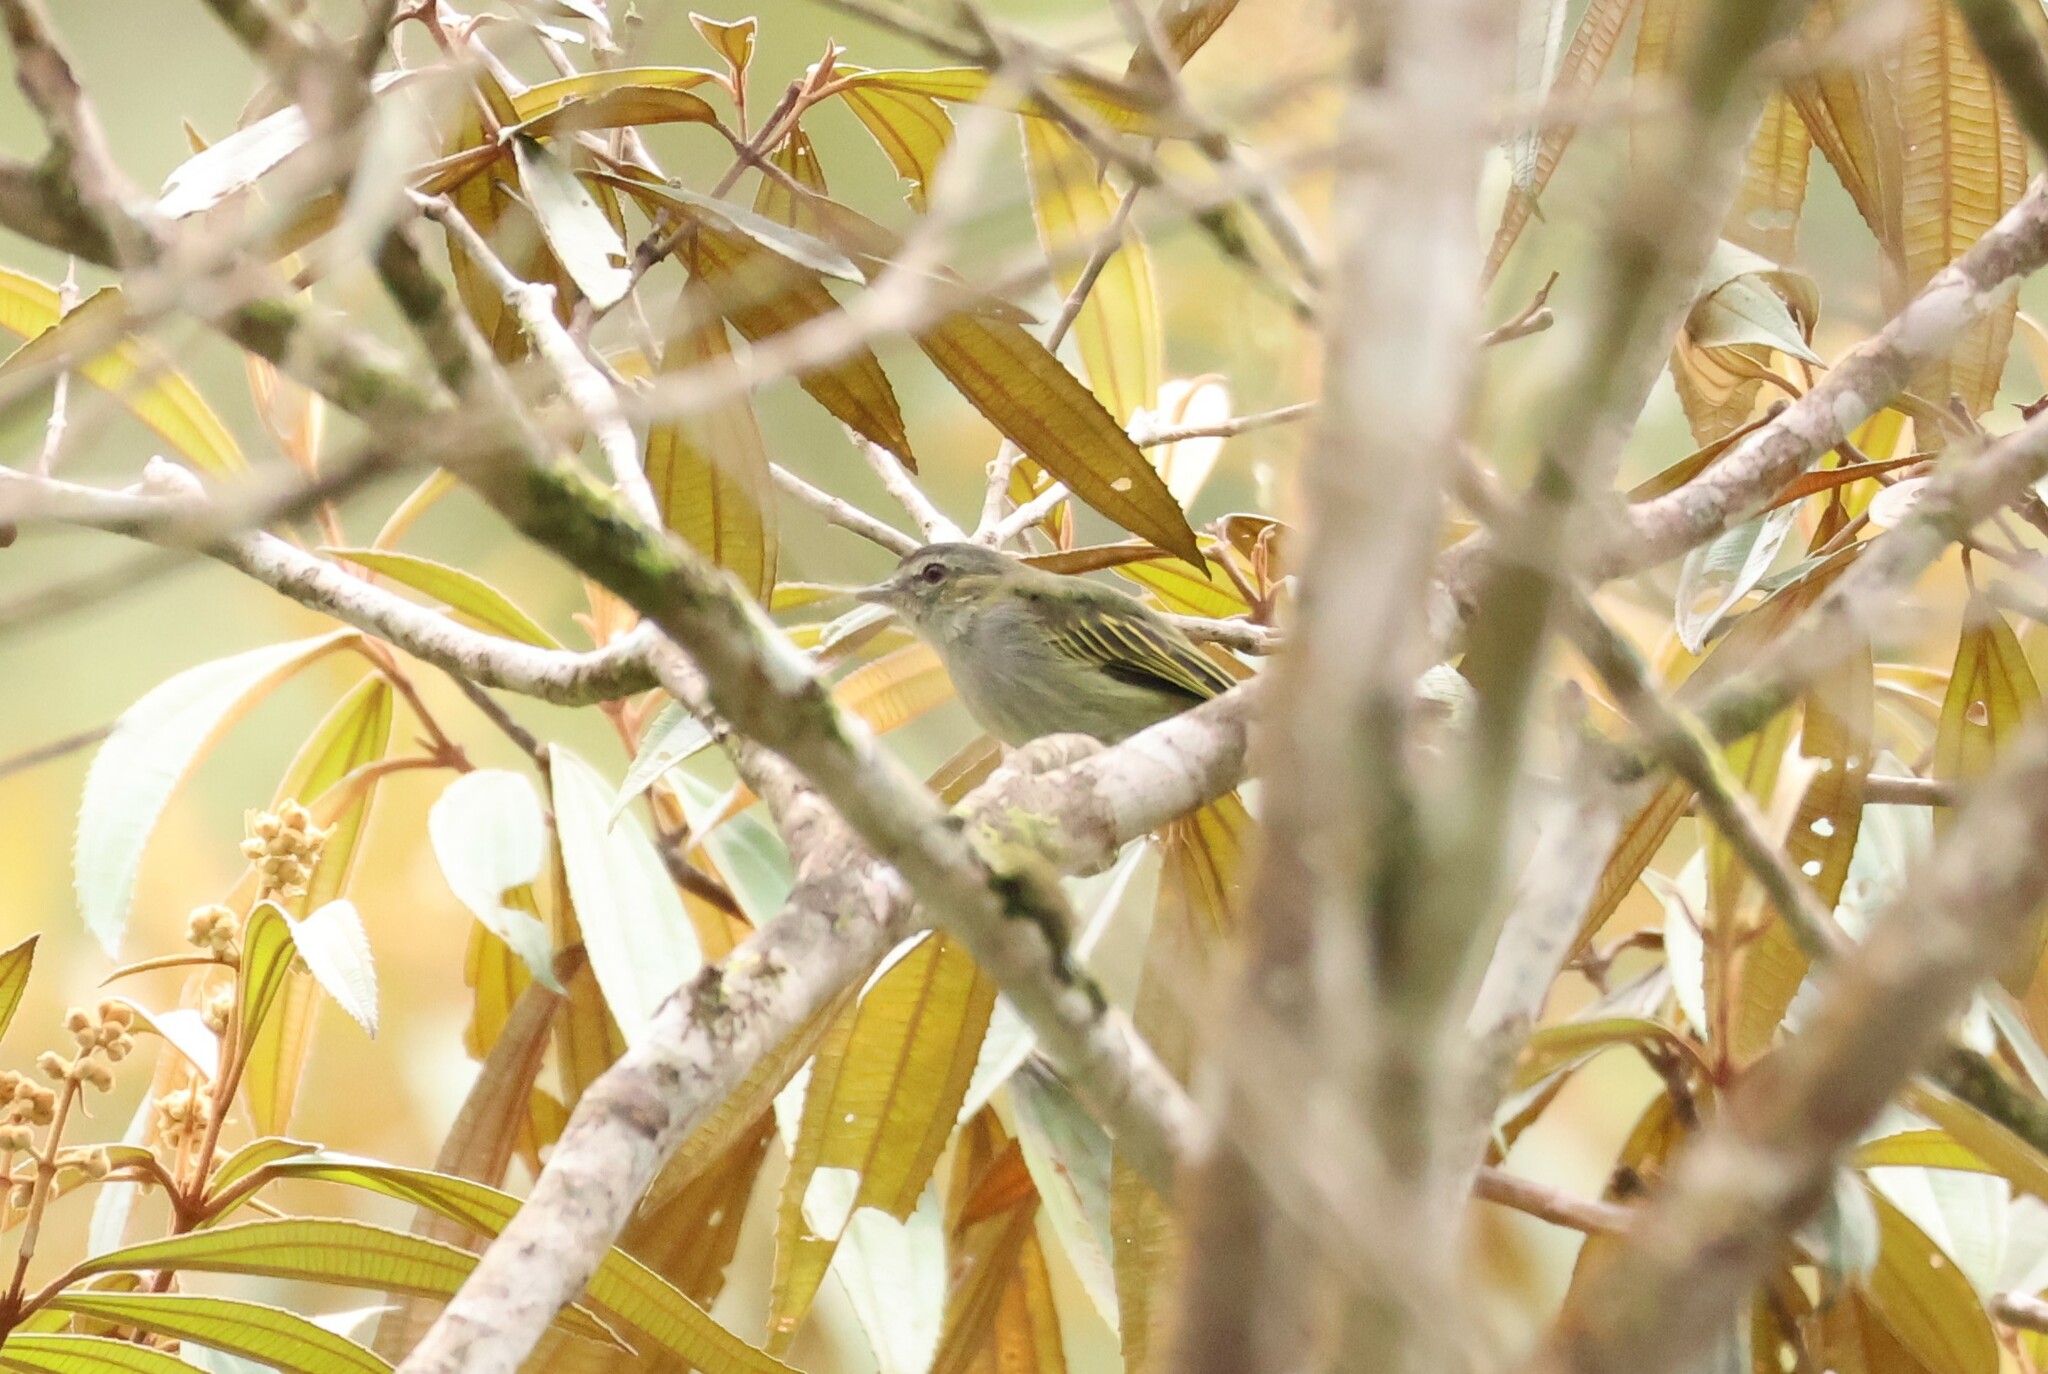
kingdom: Animalia
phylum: Chordata
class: Aves
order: Passeriformes
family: Tyrannidae
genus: Zimmerius
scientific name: Zimmerius vilissimus
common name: Paltry tyrannulet
